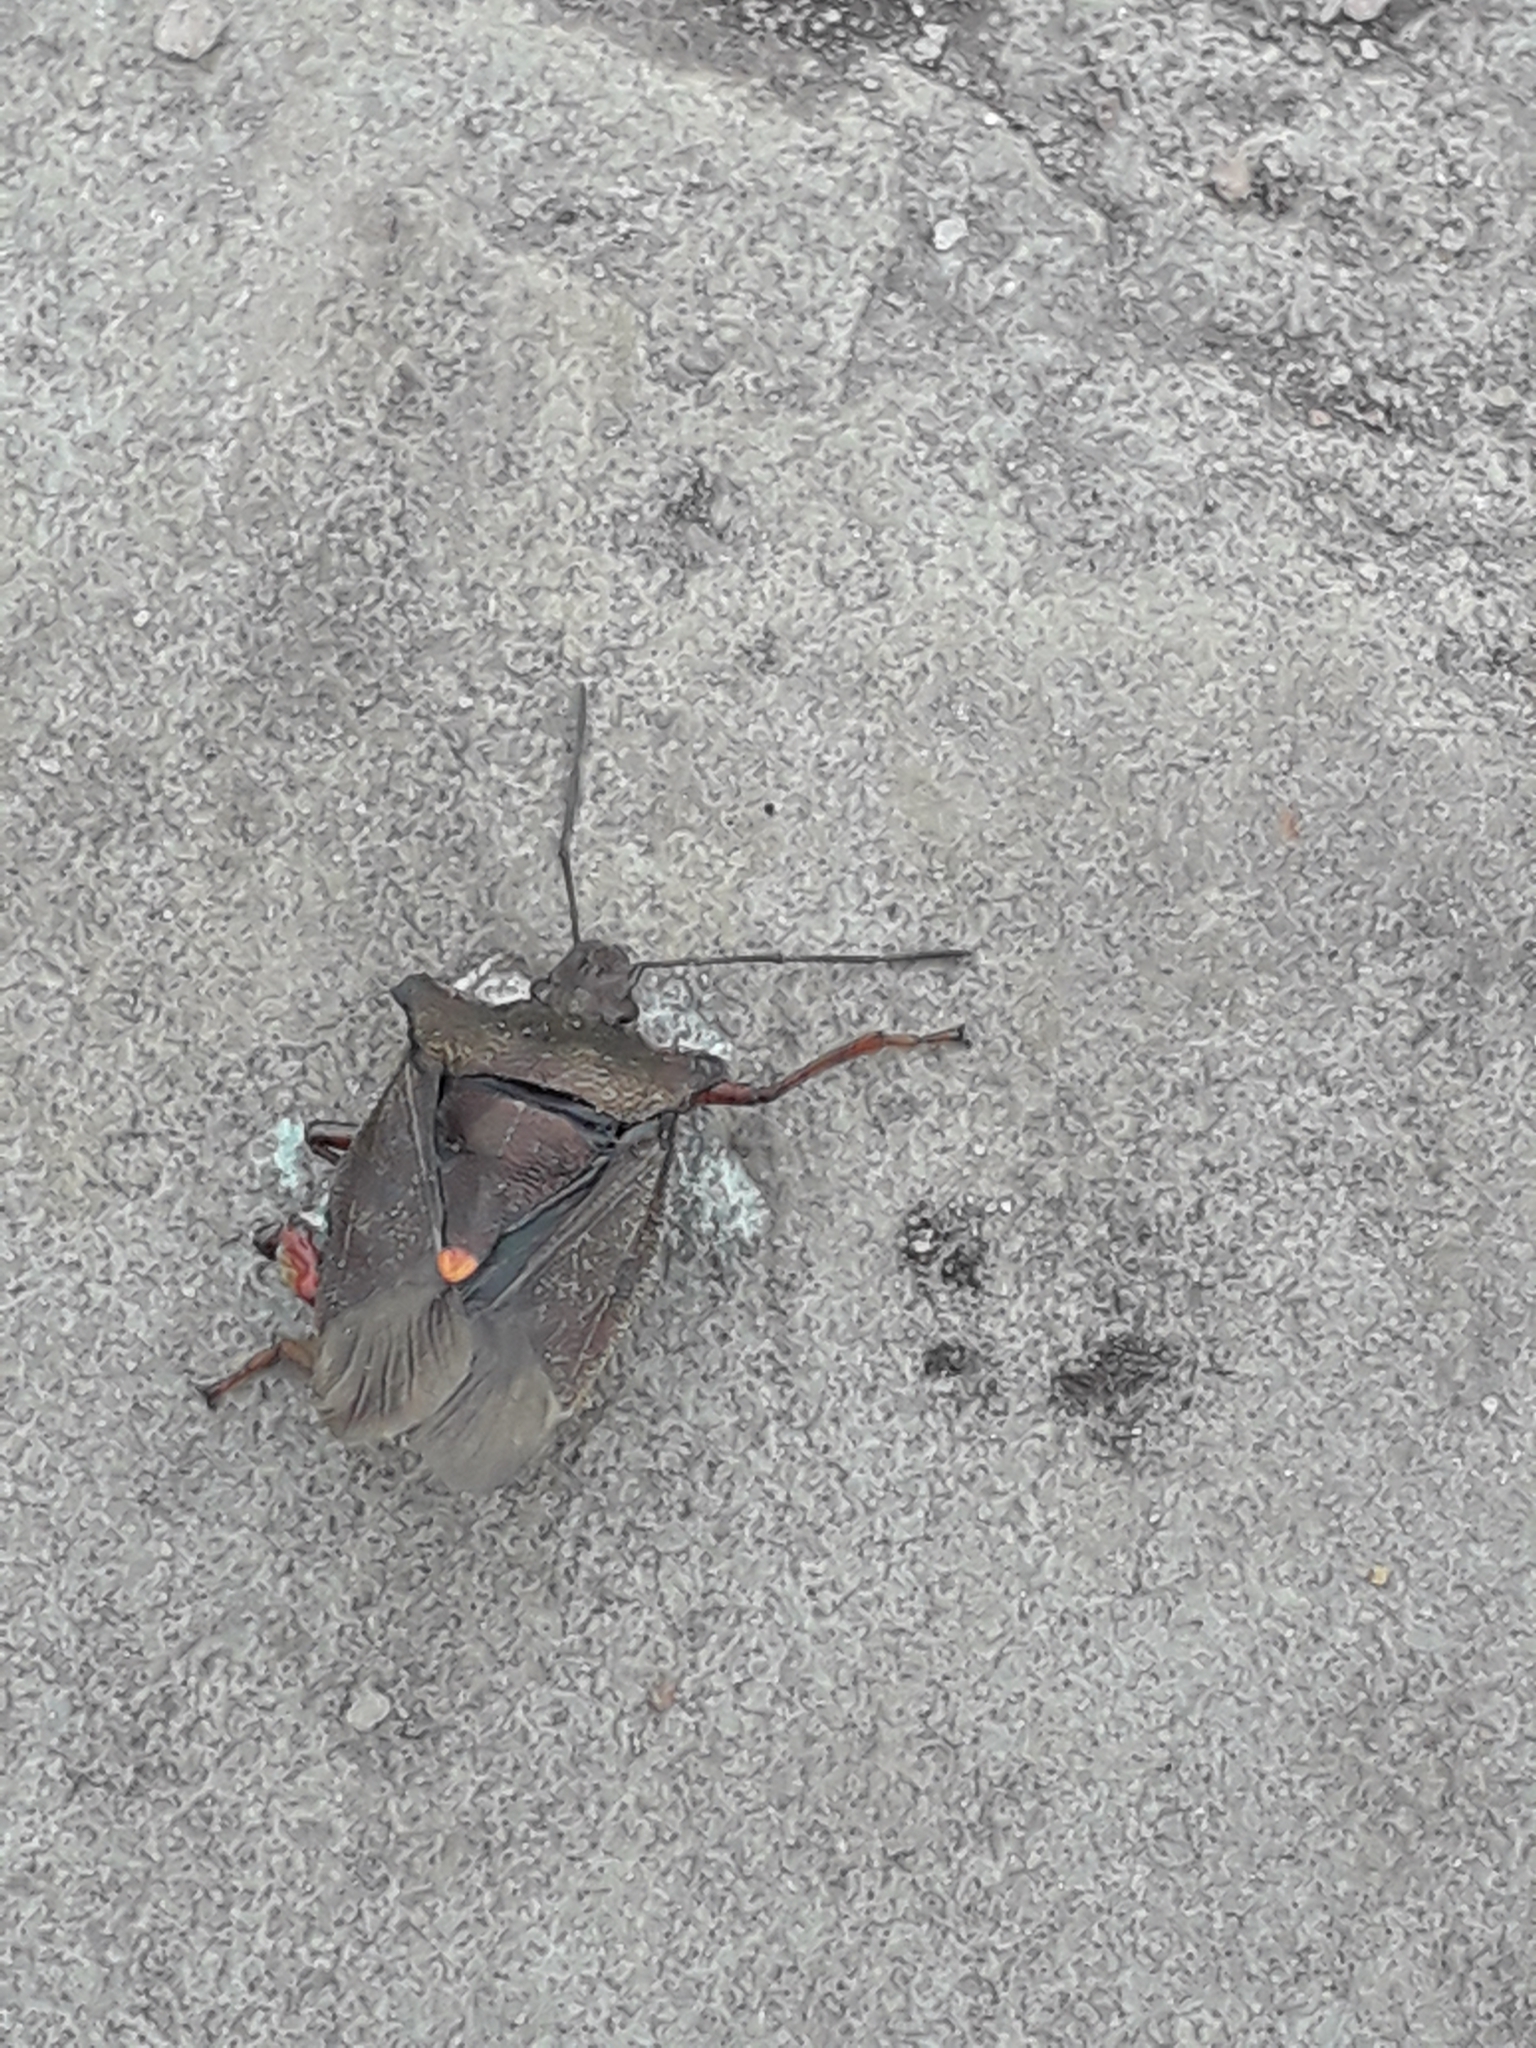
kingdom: Animalia
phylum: Arthropoda
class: Insecta
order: Hemiptera
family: Pentatomidae
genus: Pentatoma
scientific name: Pentatoma rufipes
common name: Forest bug
